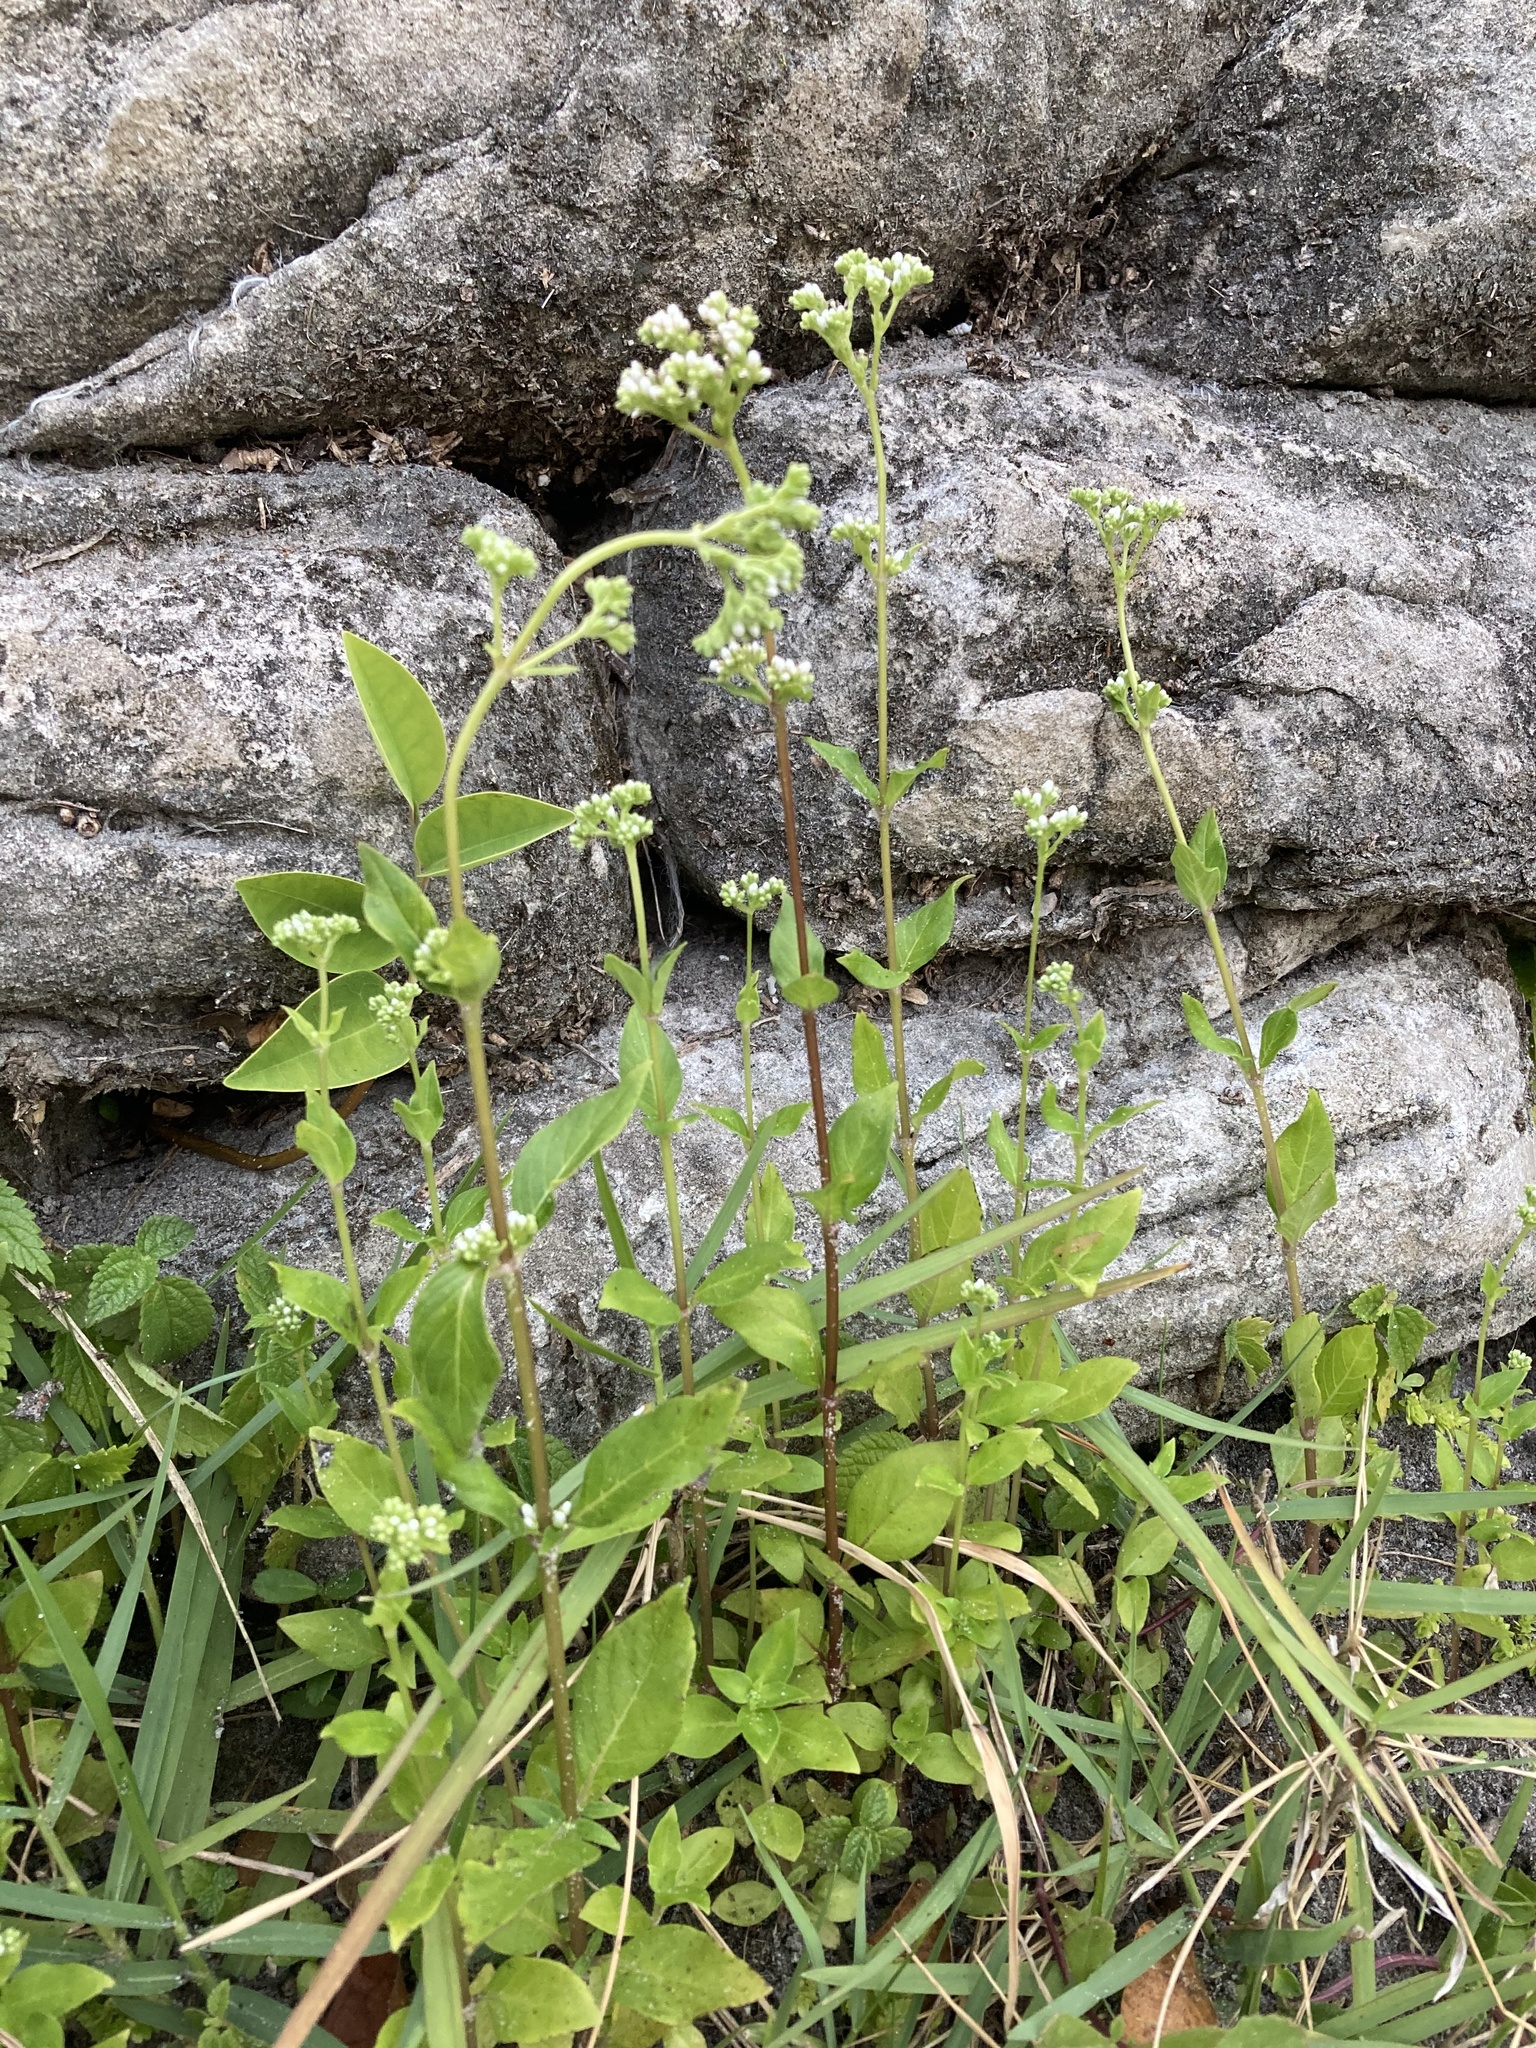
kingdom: Plantae
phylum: Tracheophyta
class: Magnoliopsida
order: Gentianales
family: Loganiaceae
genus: Mitreola
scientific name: Mitreola petiolata
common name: Lax hornpod
